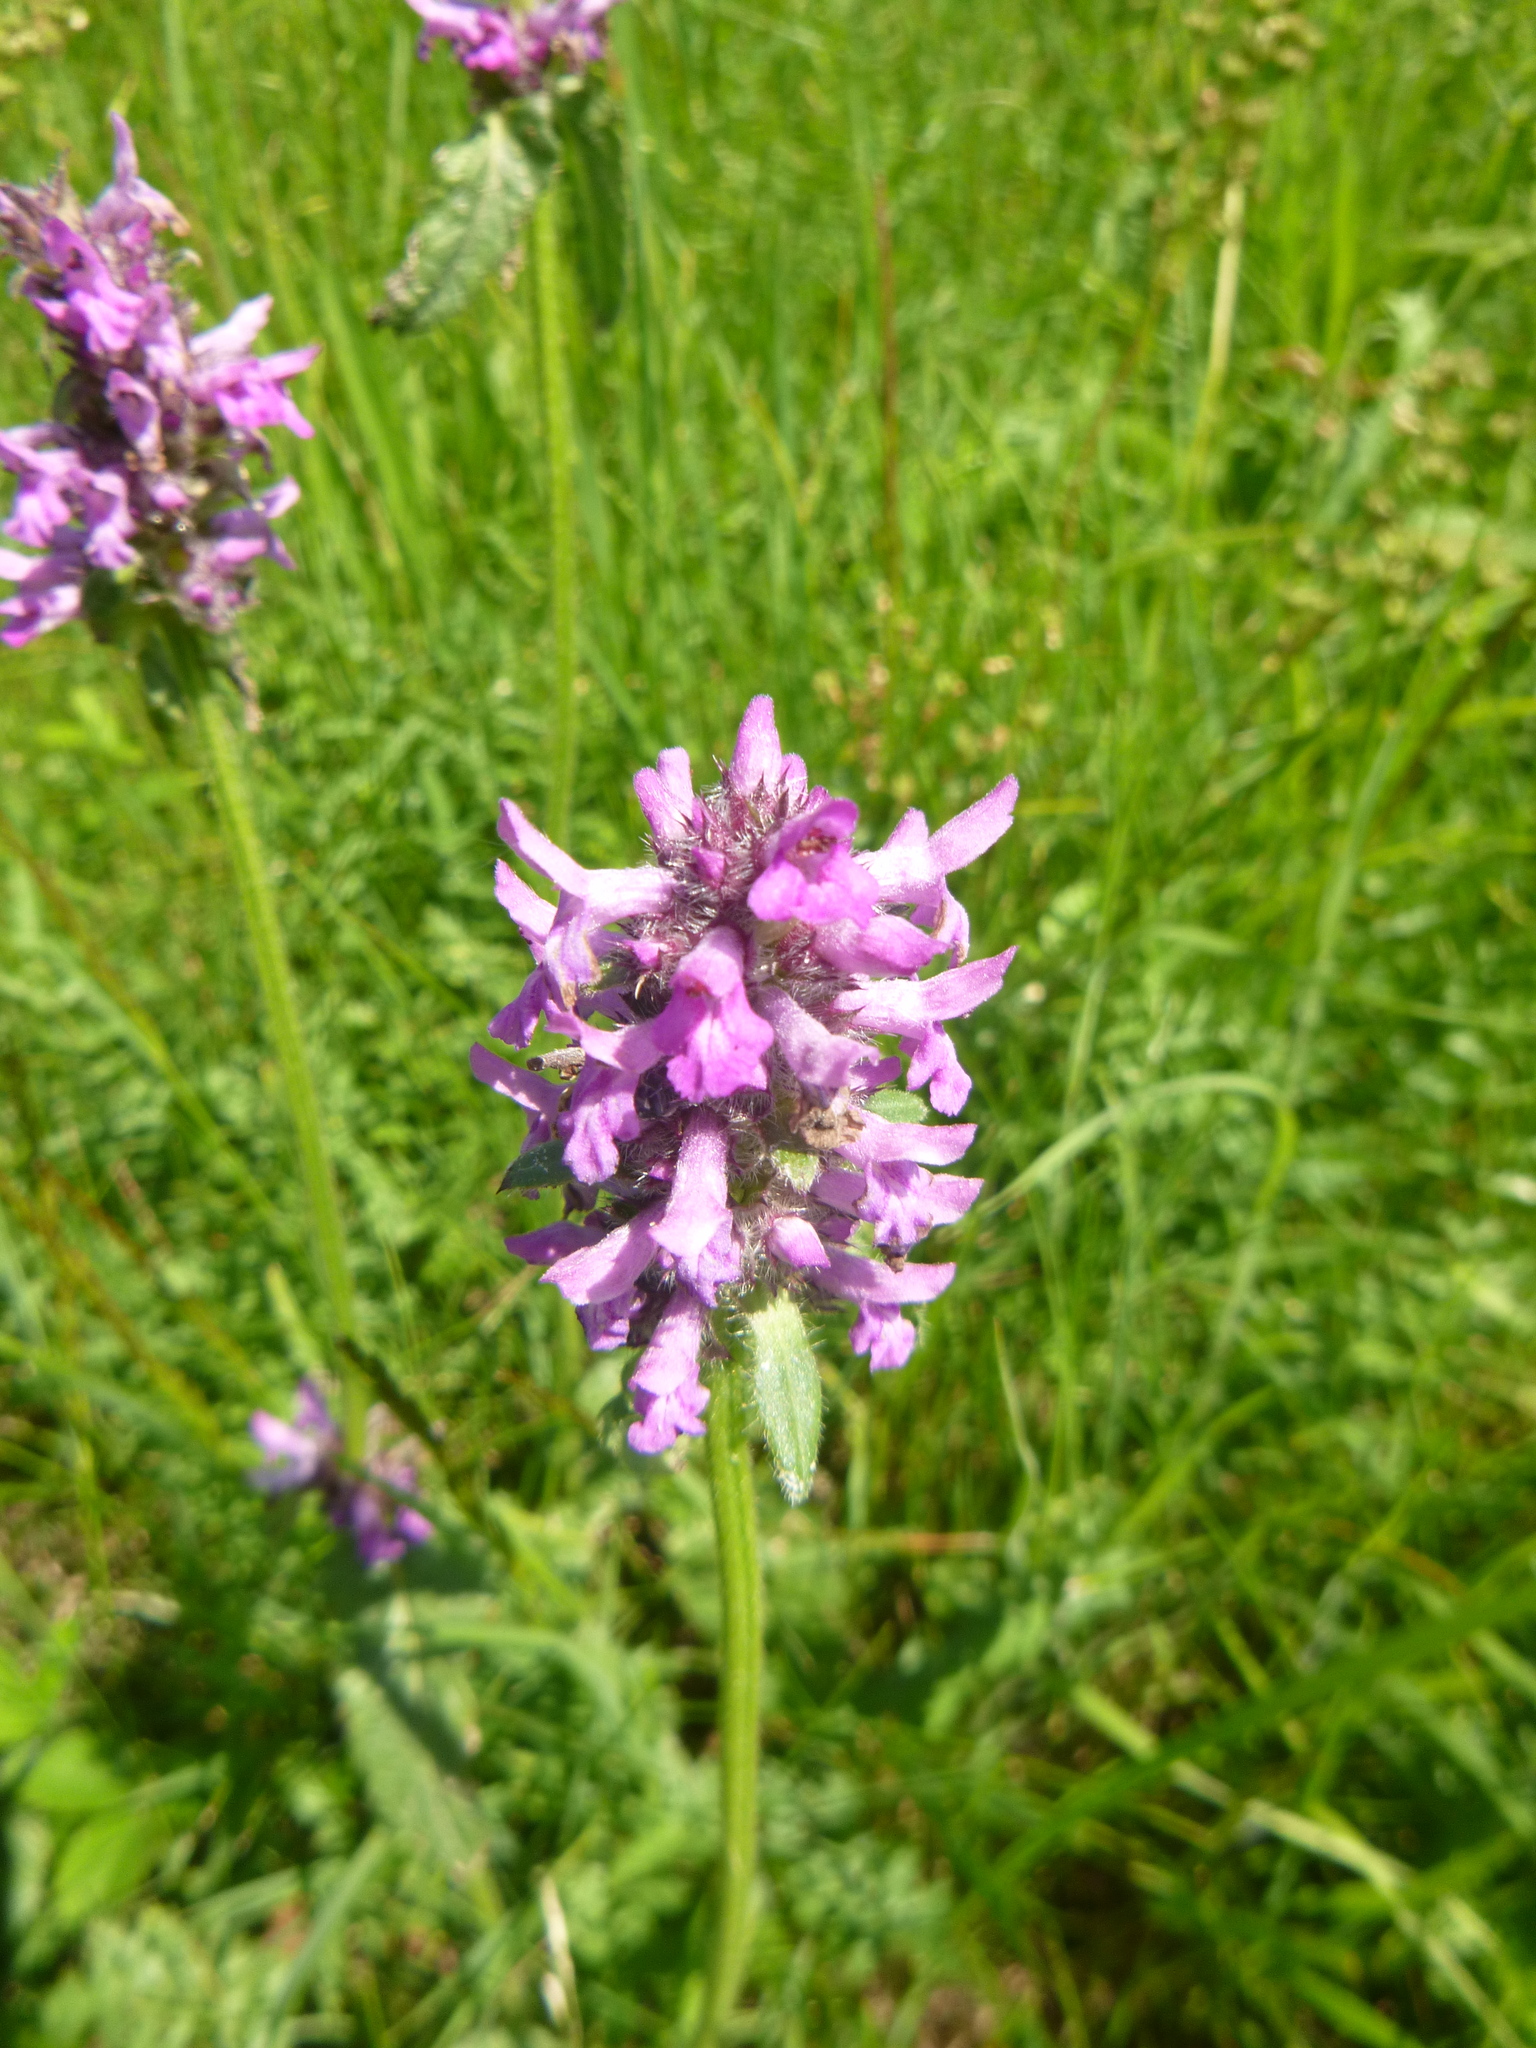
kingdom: Plantae
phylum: Tracheophyta
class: Magnoliopsida
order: Lamiales
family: Lamiaceae
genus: Betonica
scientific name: Betonica officinalis
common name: Bishop's-wort
